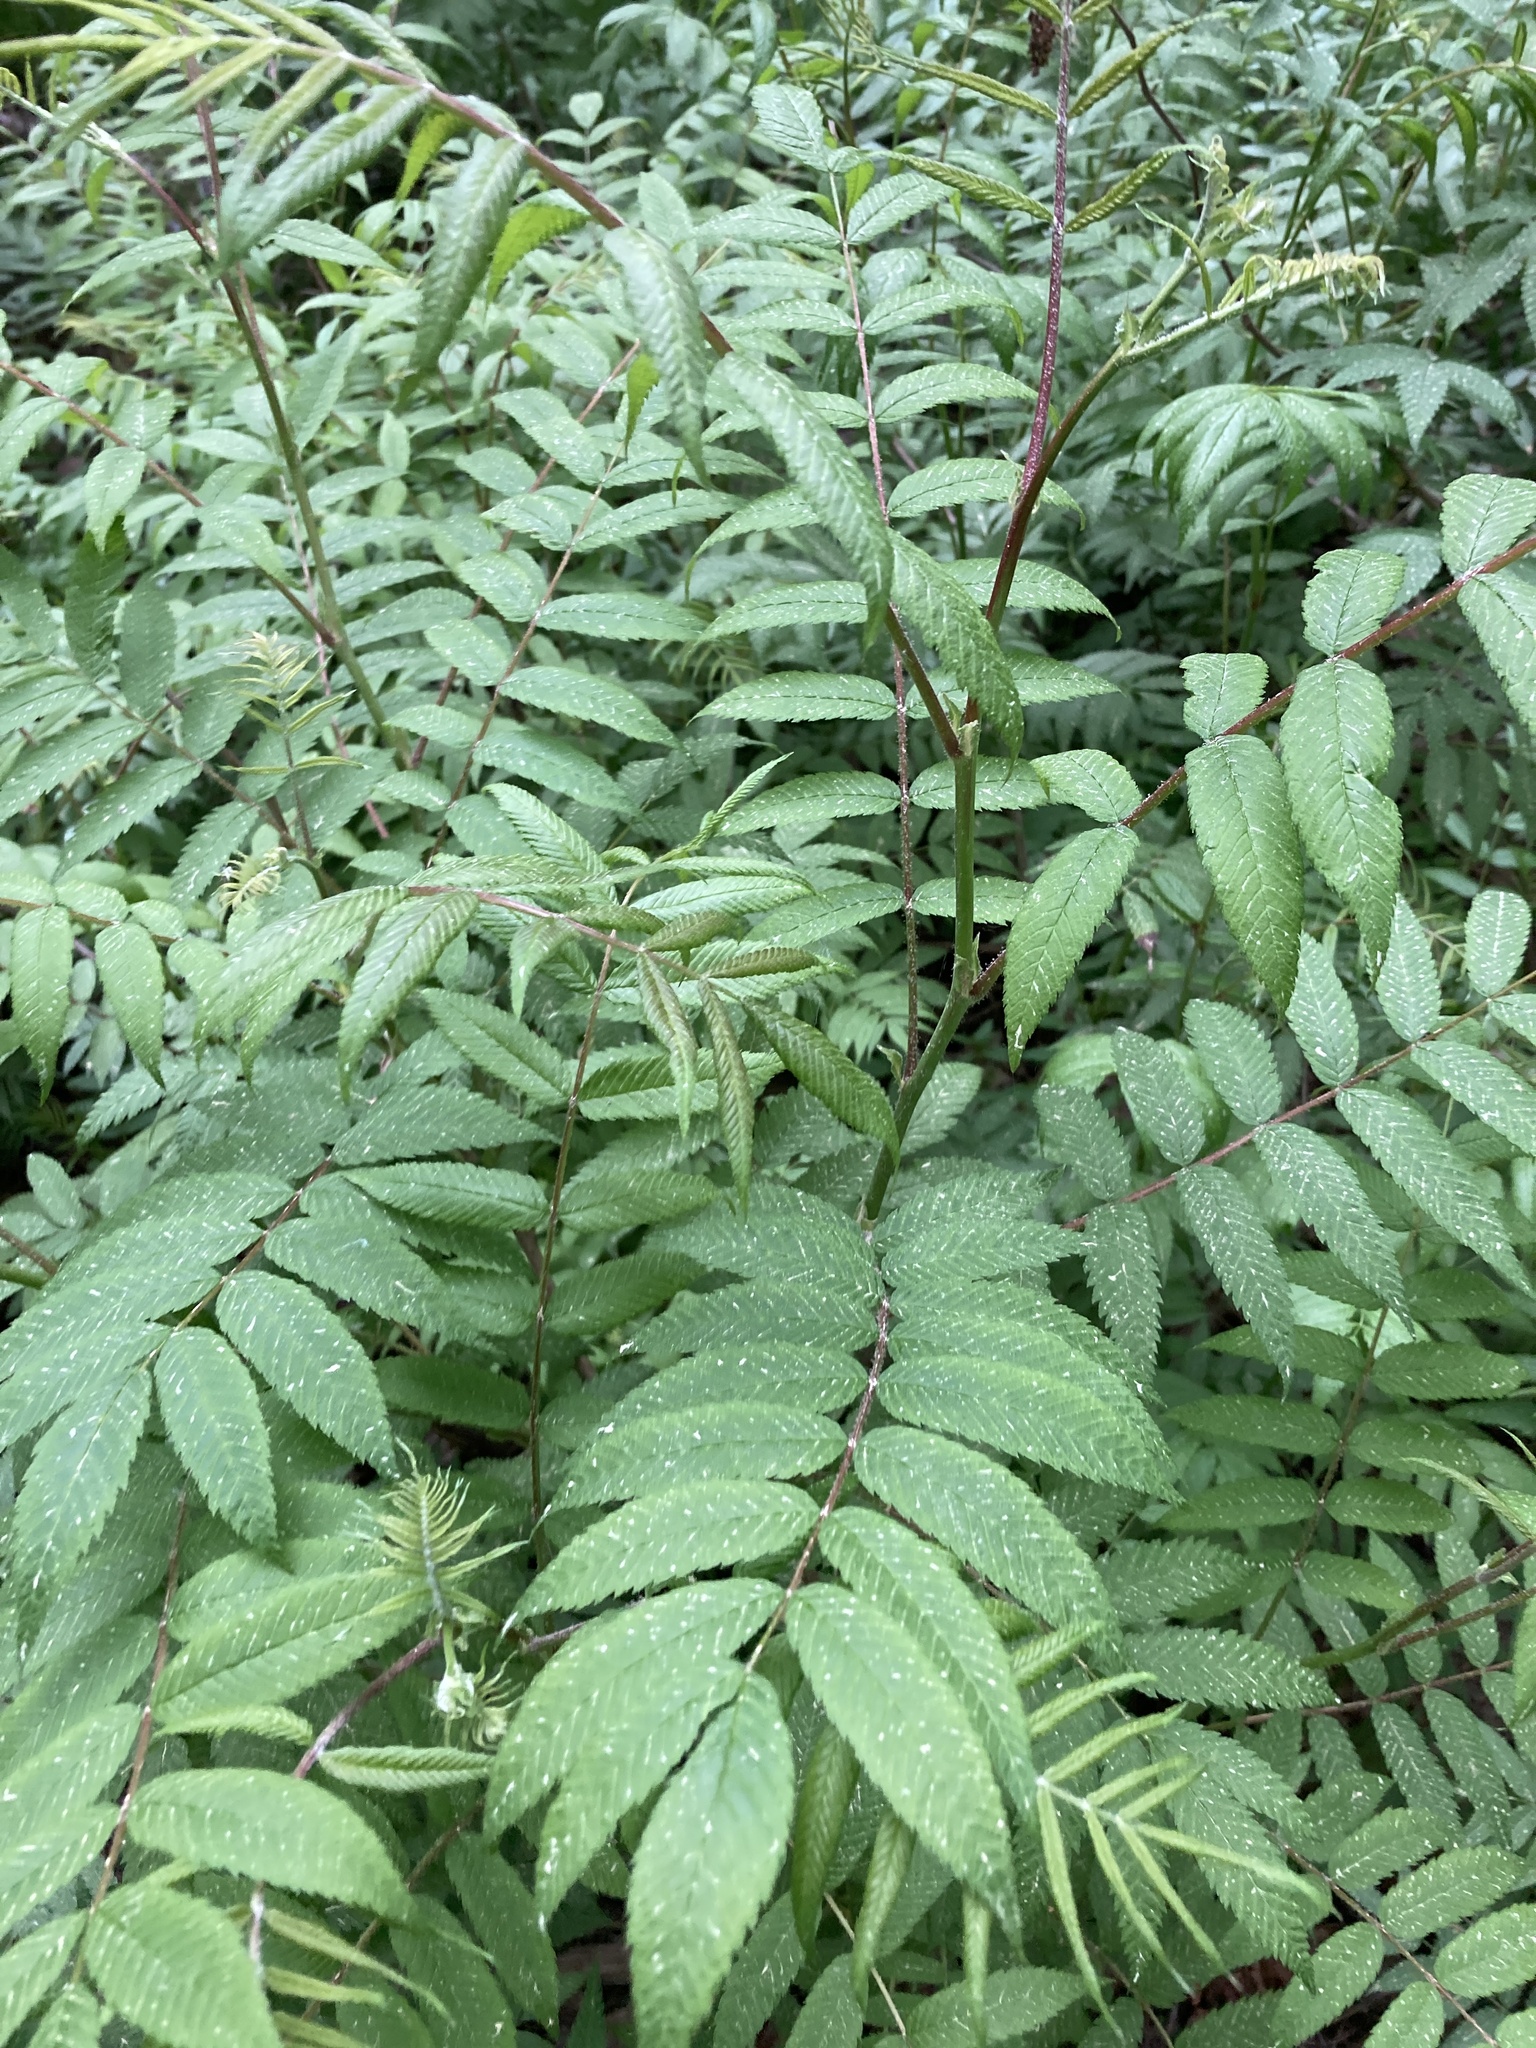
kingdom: Plantae
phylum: Tracheophyta
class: Magnoliopsida
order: Rosales
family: Rosaceae
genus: Sorbaria
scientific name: Sorbaria sorbifolia
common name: False spiraea
